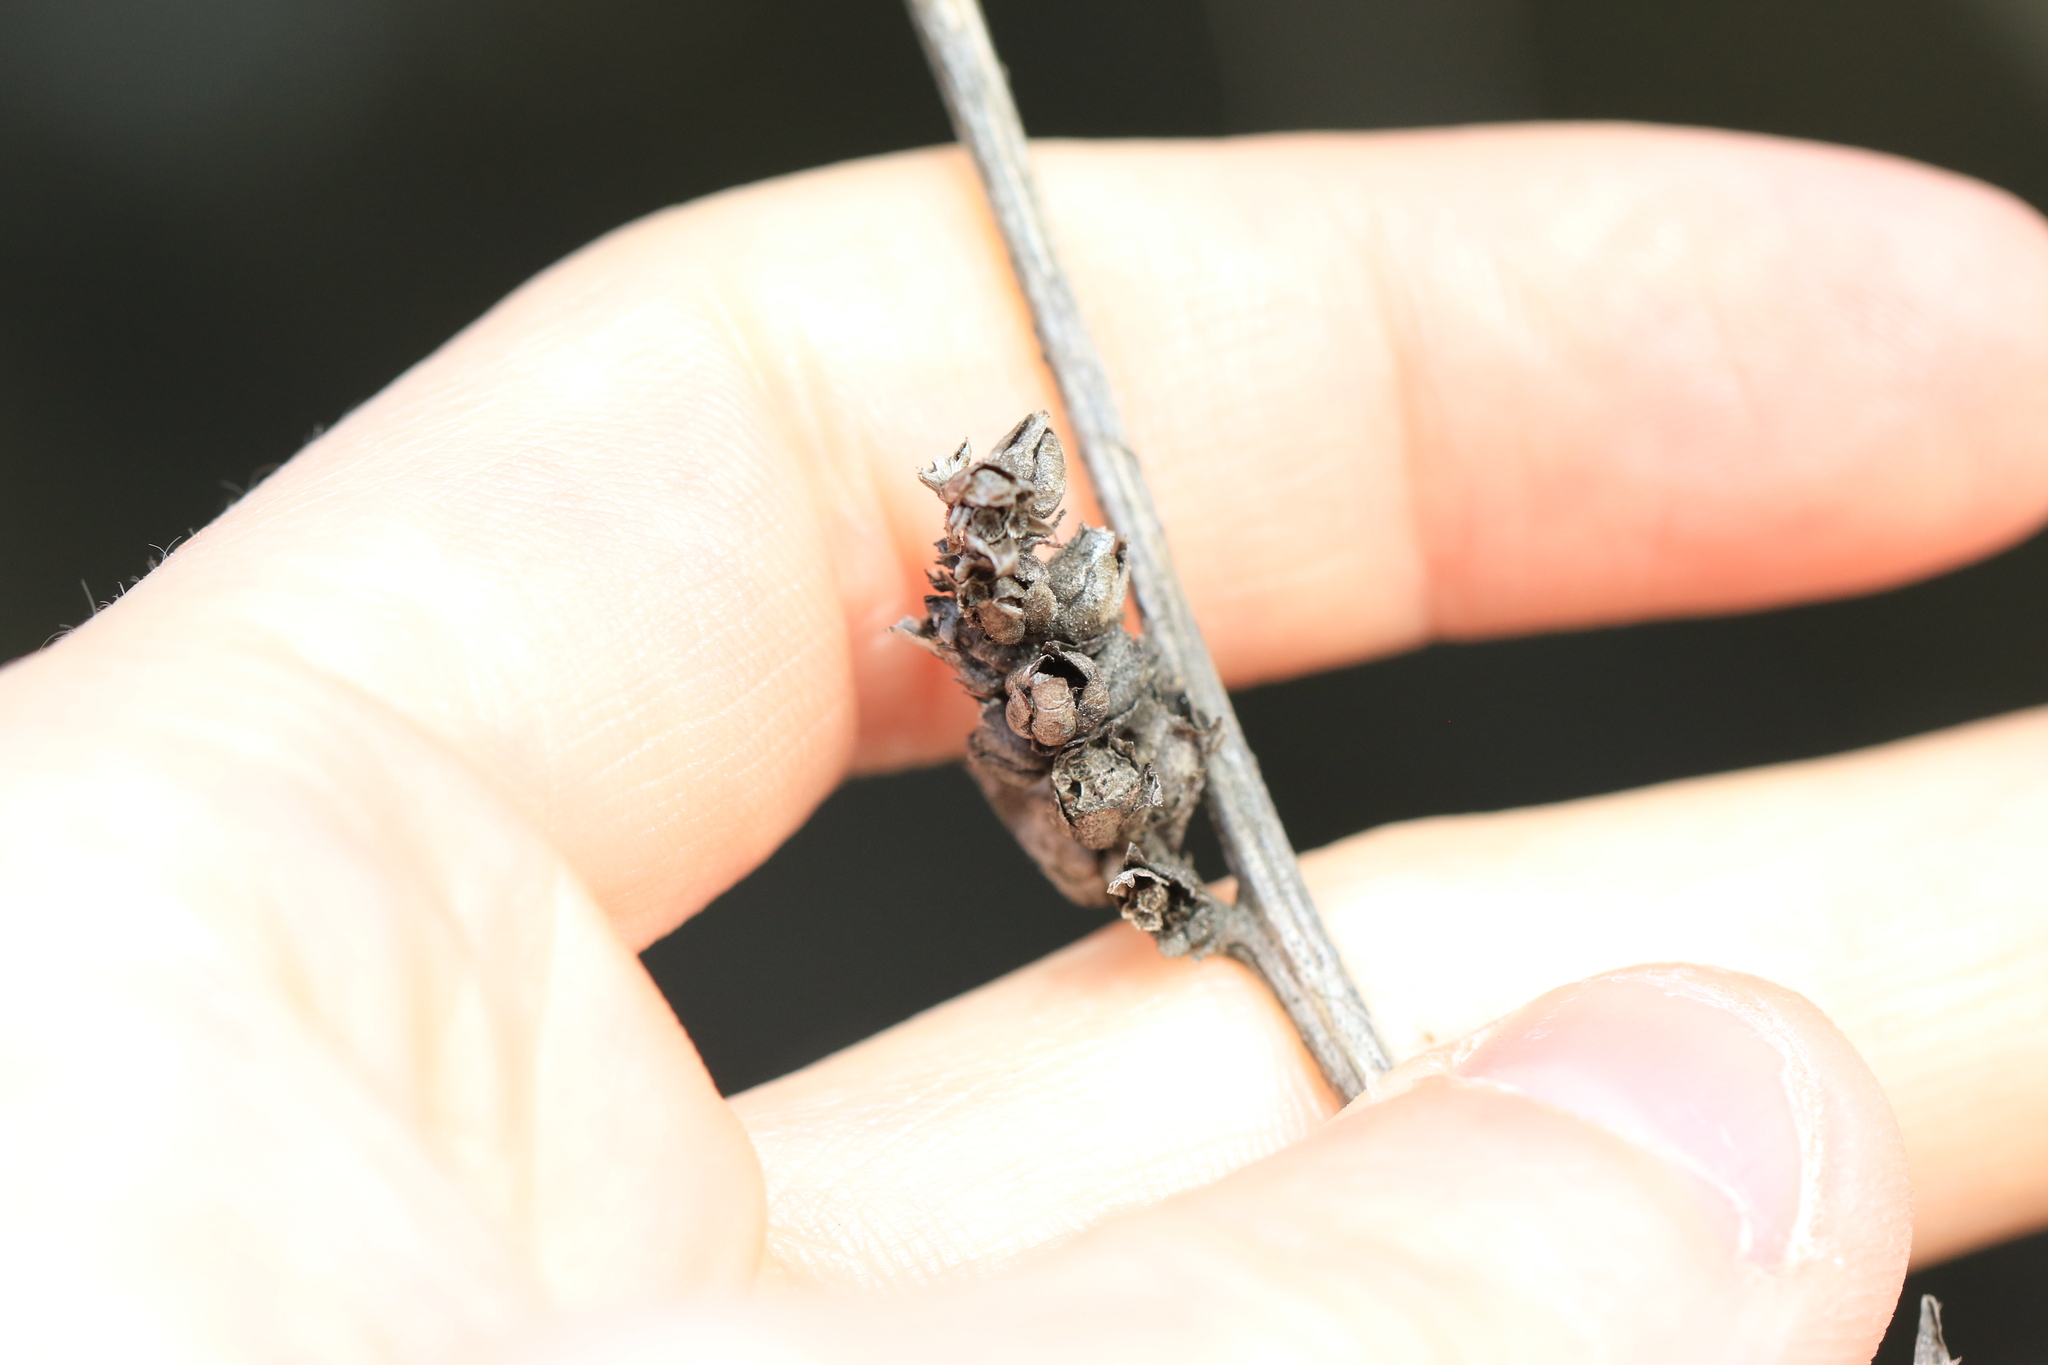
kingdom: Plantae
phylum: Tracheophyta
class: Magnoliopsida
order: Asterales
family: Asteraceae
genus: Cichorium
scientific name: Cichorium intybus
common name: Chicory
